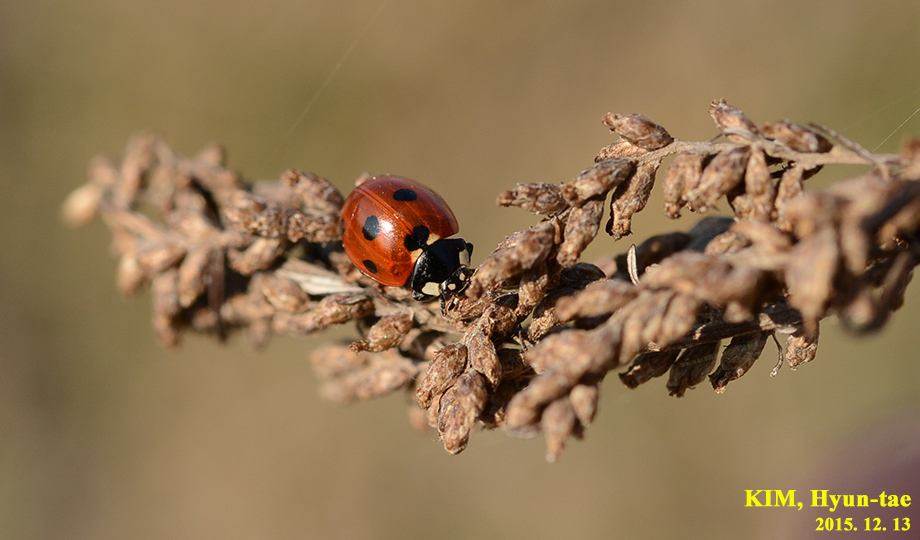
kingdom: Animalia
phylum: Arthropoda
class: Insecta
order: Coleoptera
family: Coccinellidae
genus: Coccinella
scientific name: Coccinella septempunctata
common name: Sevenspotted lady beetle
